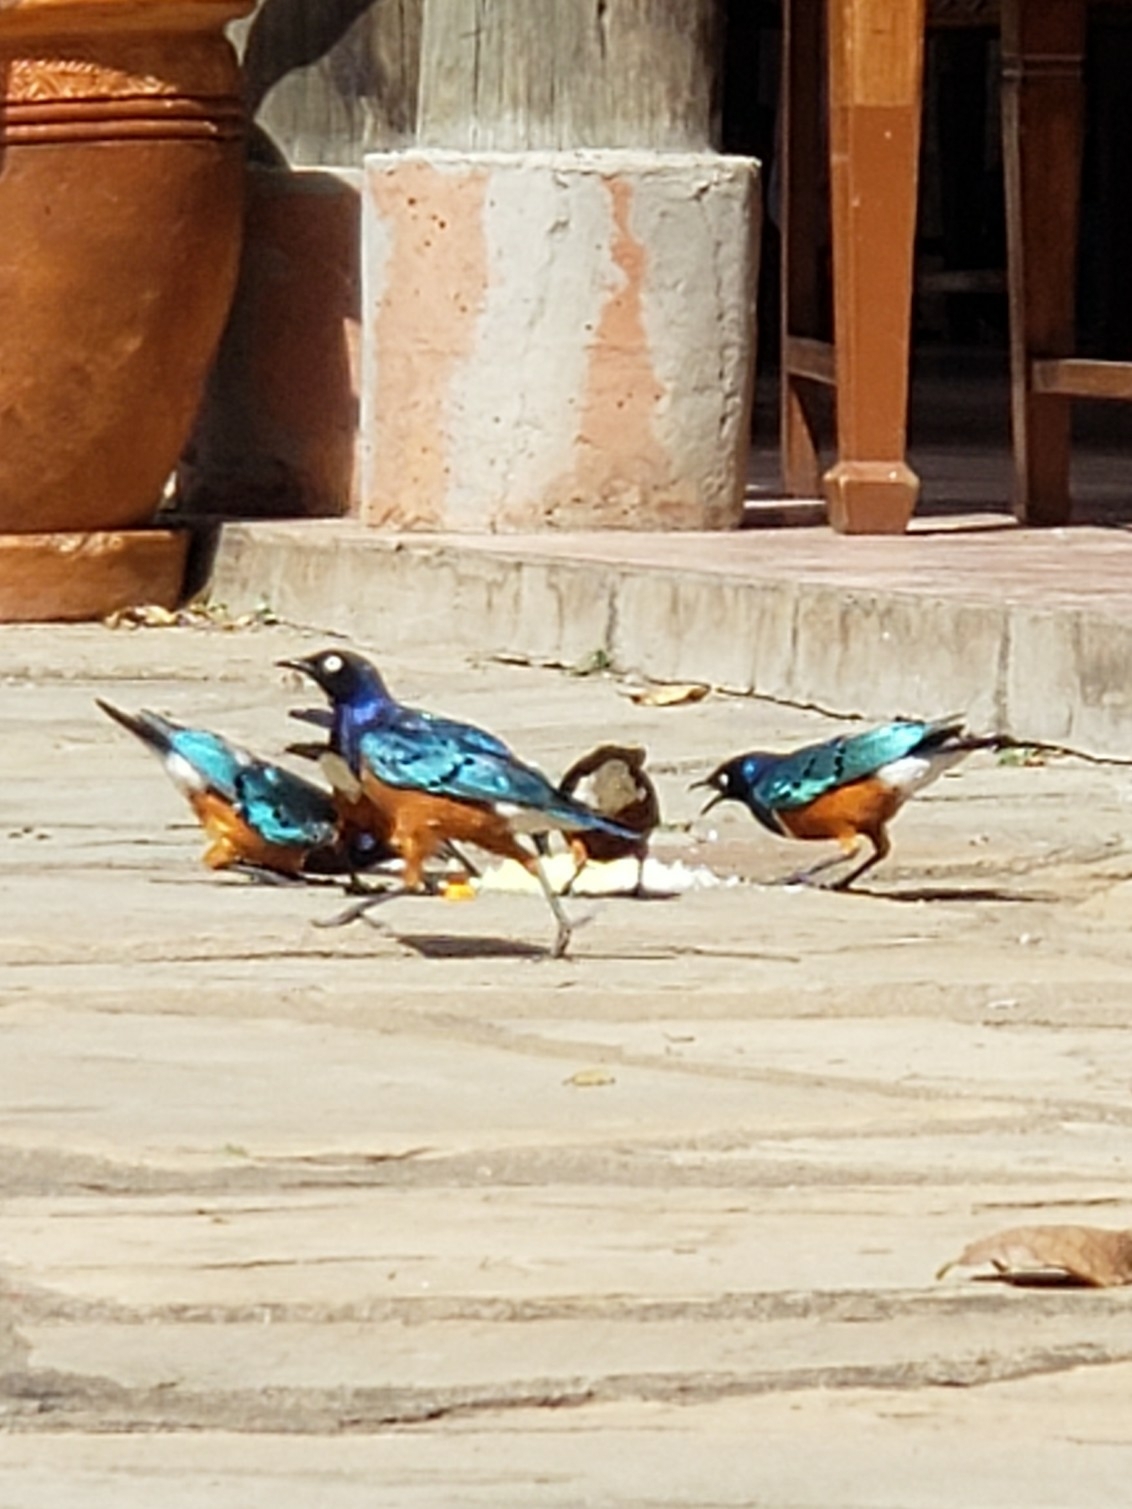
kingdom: Animalia
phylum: Chordata
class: Aves
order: Passeriformes
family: Sturnidae
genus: Lamprotornis
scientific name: Lamprotornis superbus
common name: Superb starling
